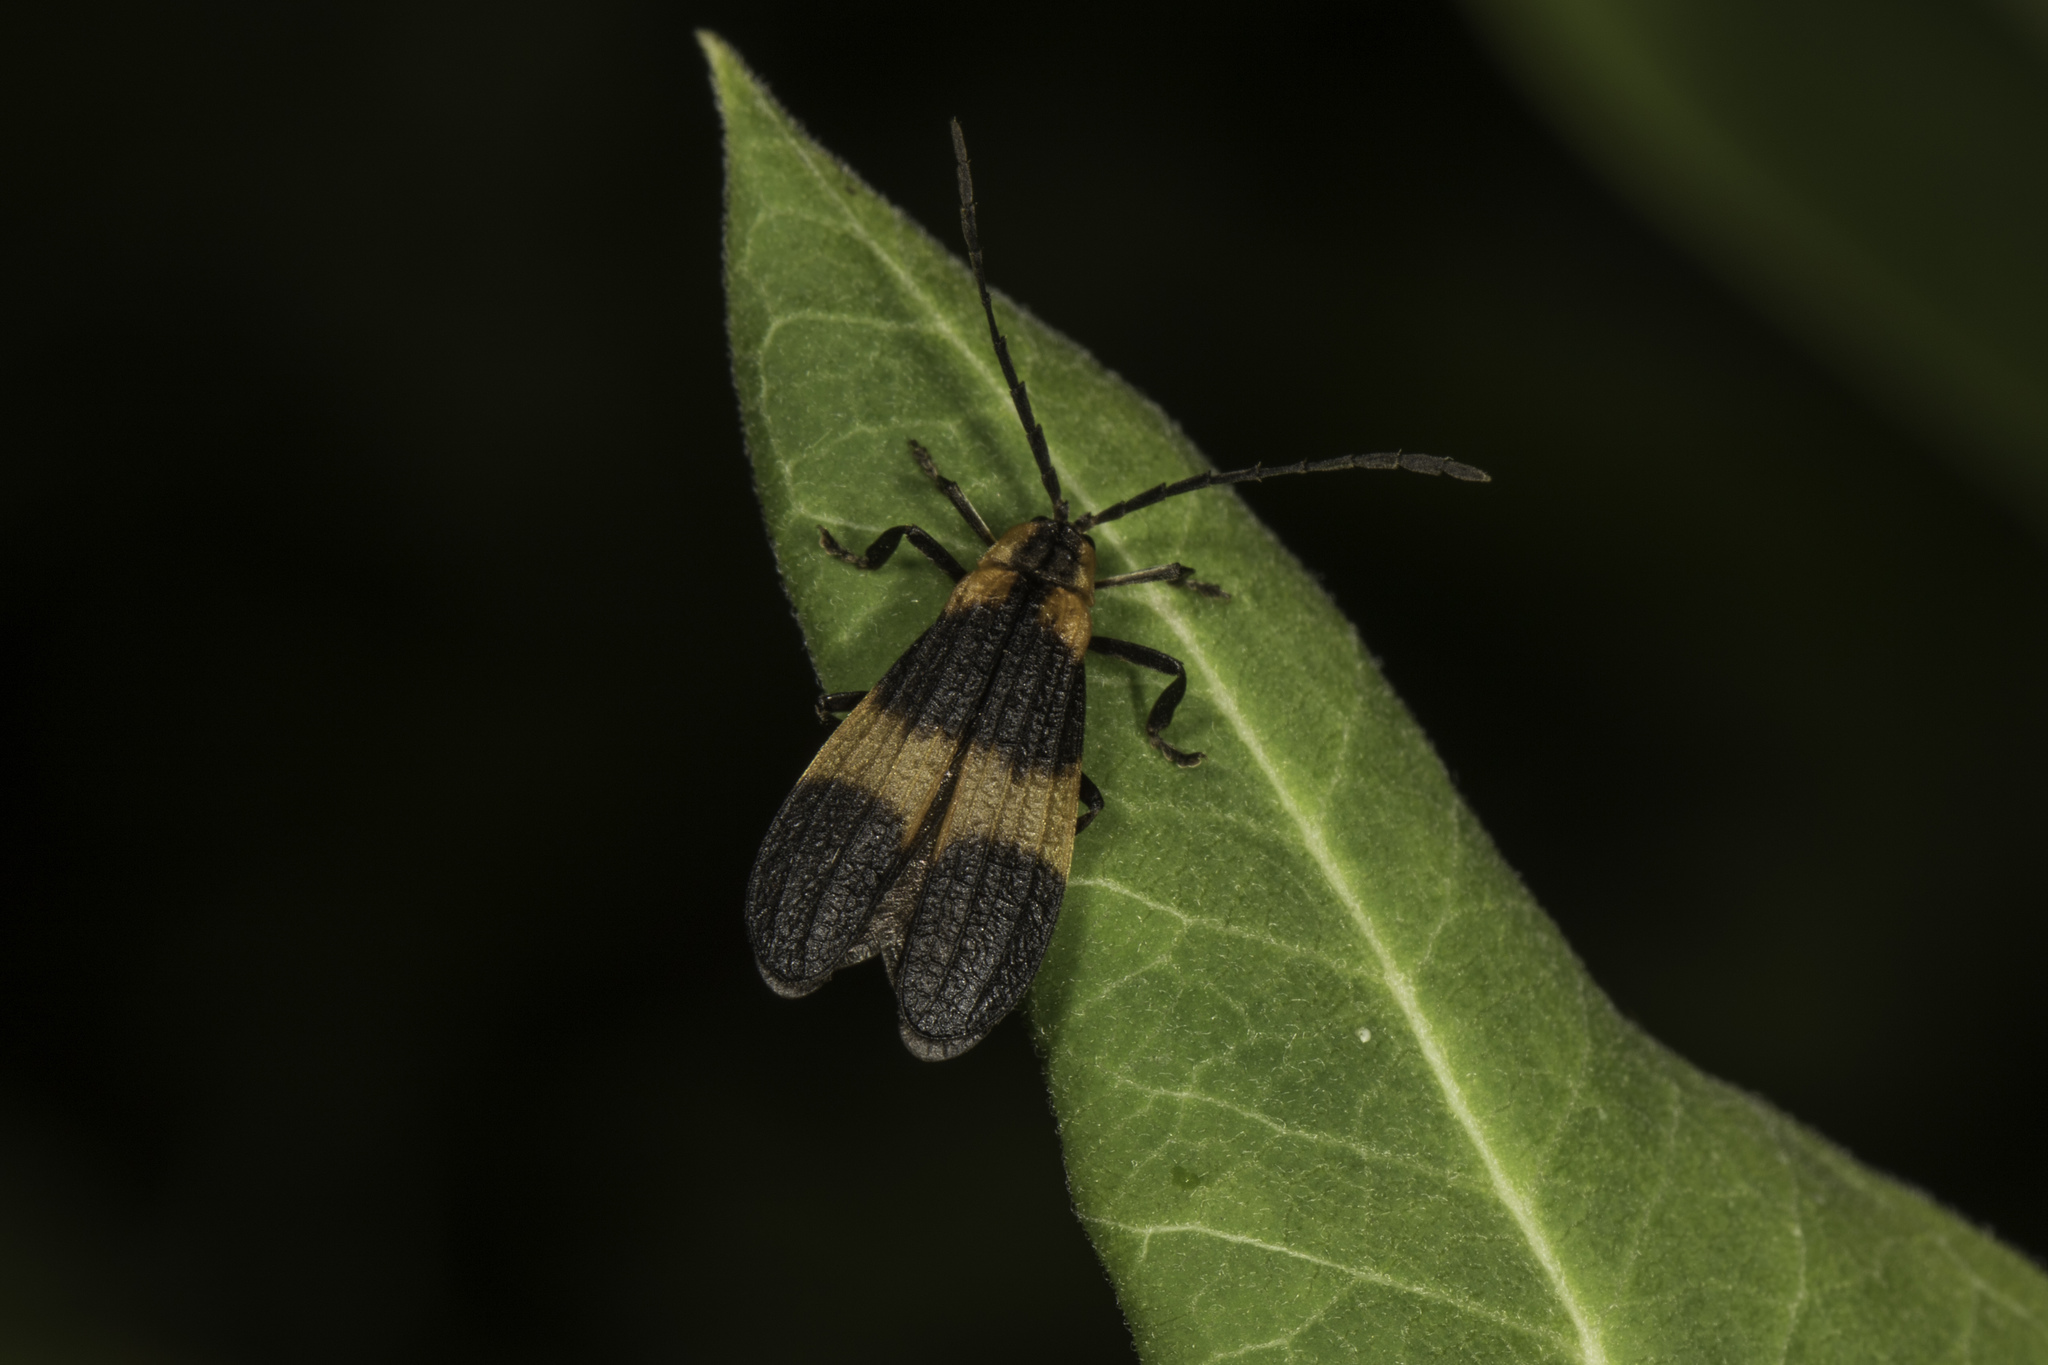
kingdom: Animalia
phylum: Arthropoda
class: Insecta
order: Coleoptera
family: Lycidae
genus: Calopteron
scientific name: Calopteron reticulatum
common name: Banded net-winged beetle
